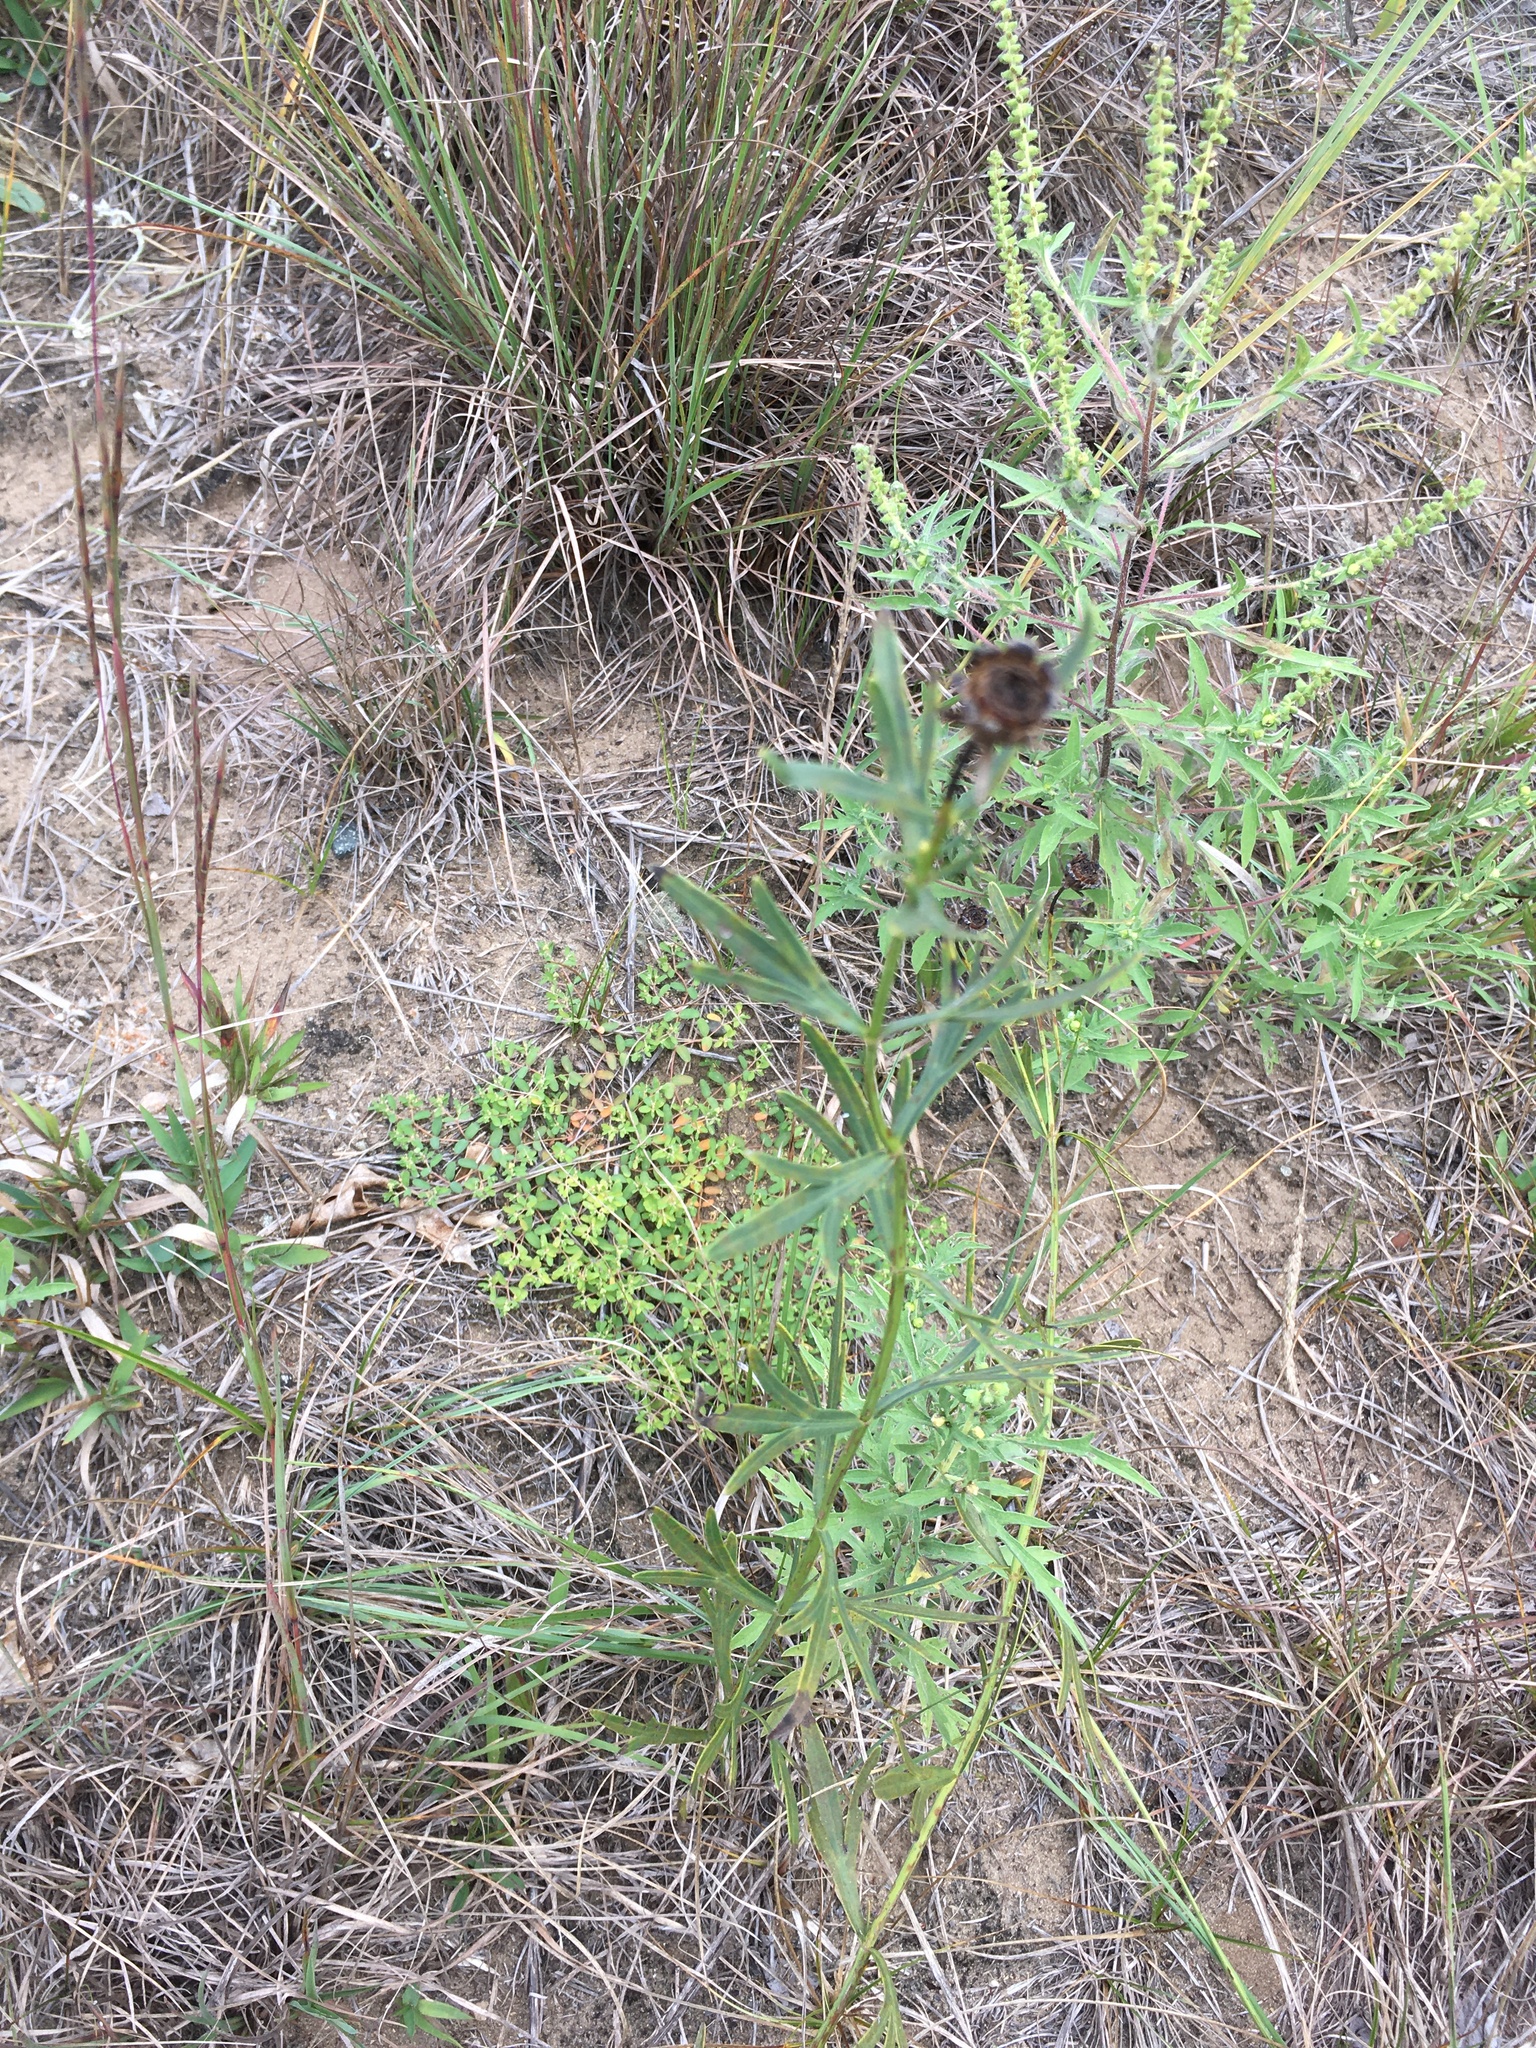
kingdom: Plantae
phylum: Tracheophyta
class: Magnoliopsida
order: Asterales
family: Asteraceae
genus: Coreopsis
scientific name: Coreopsis palmata
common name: Prairie coreopsis
